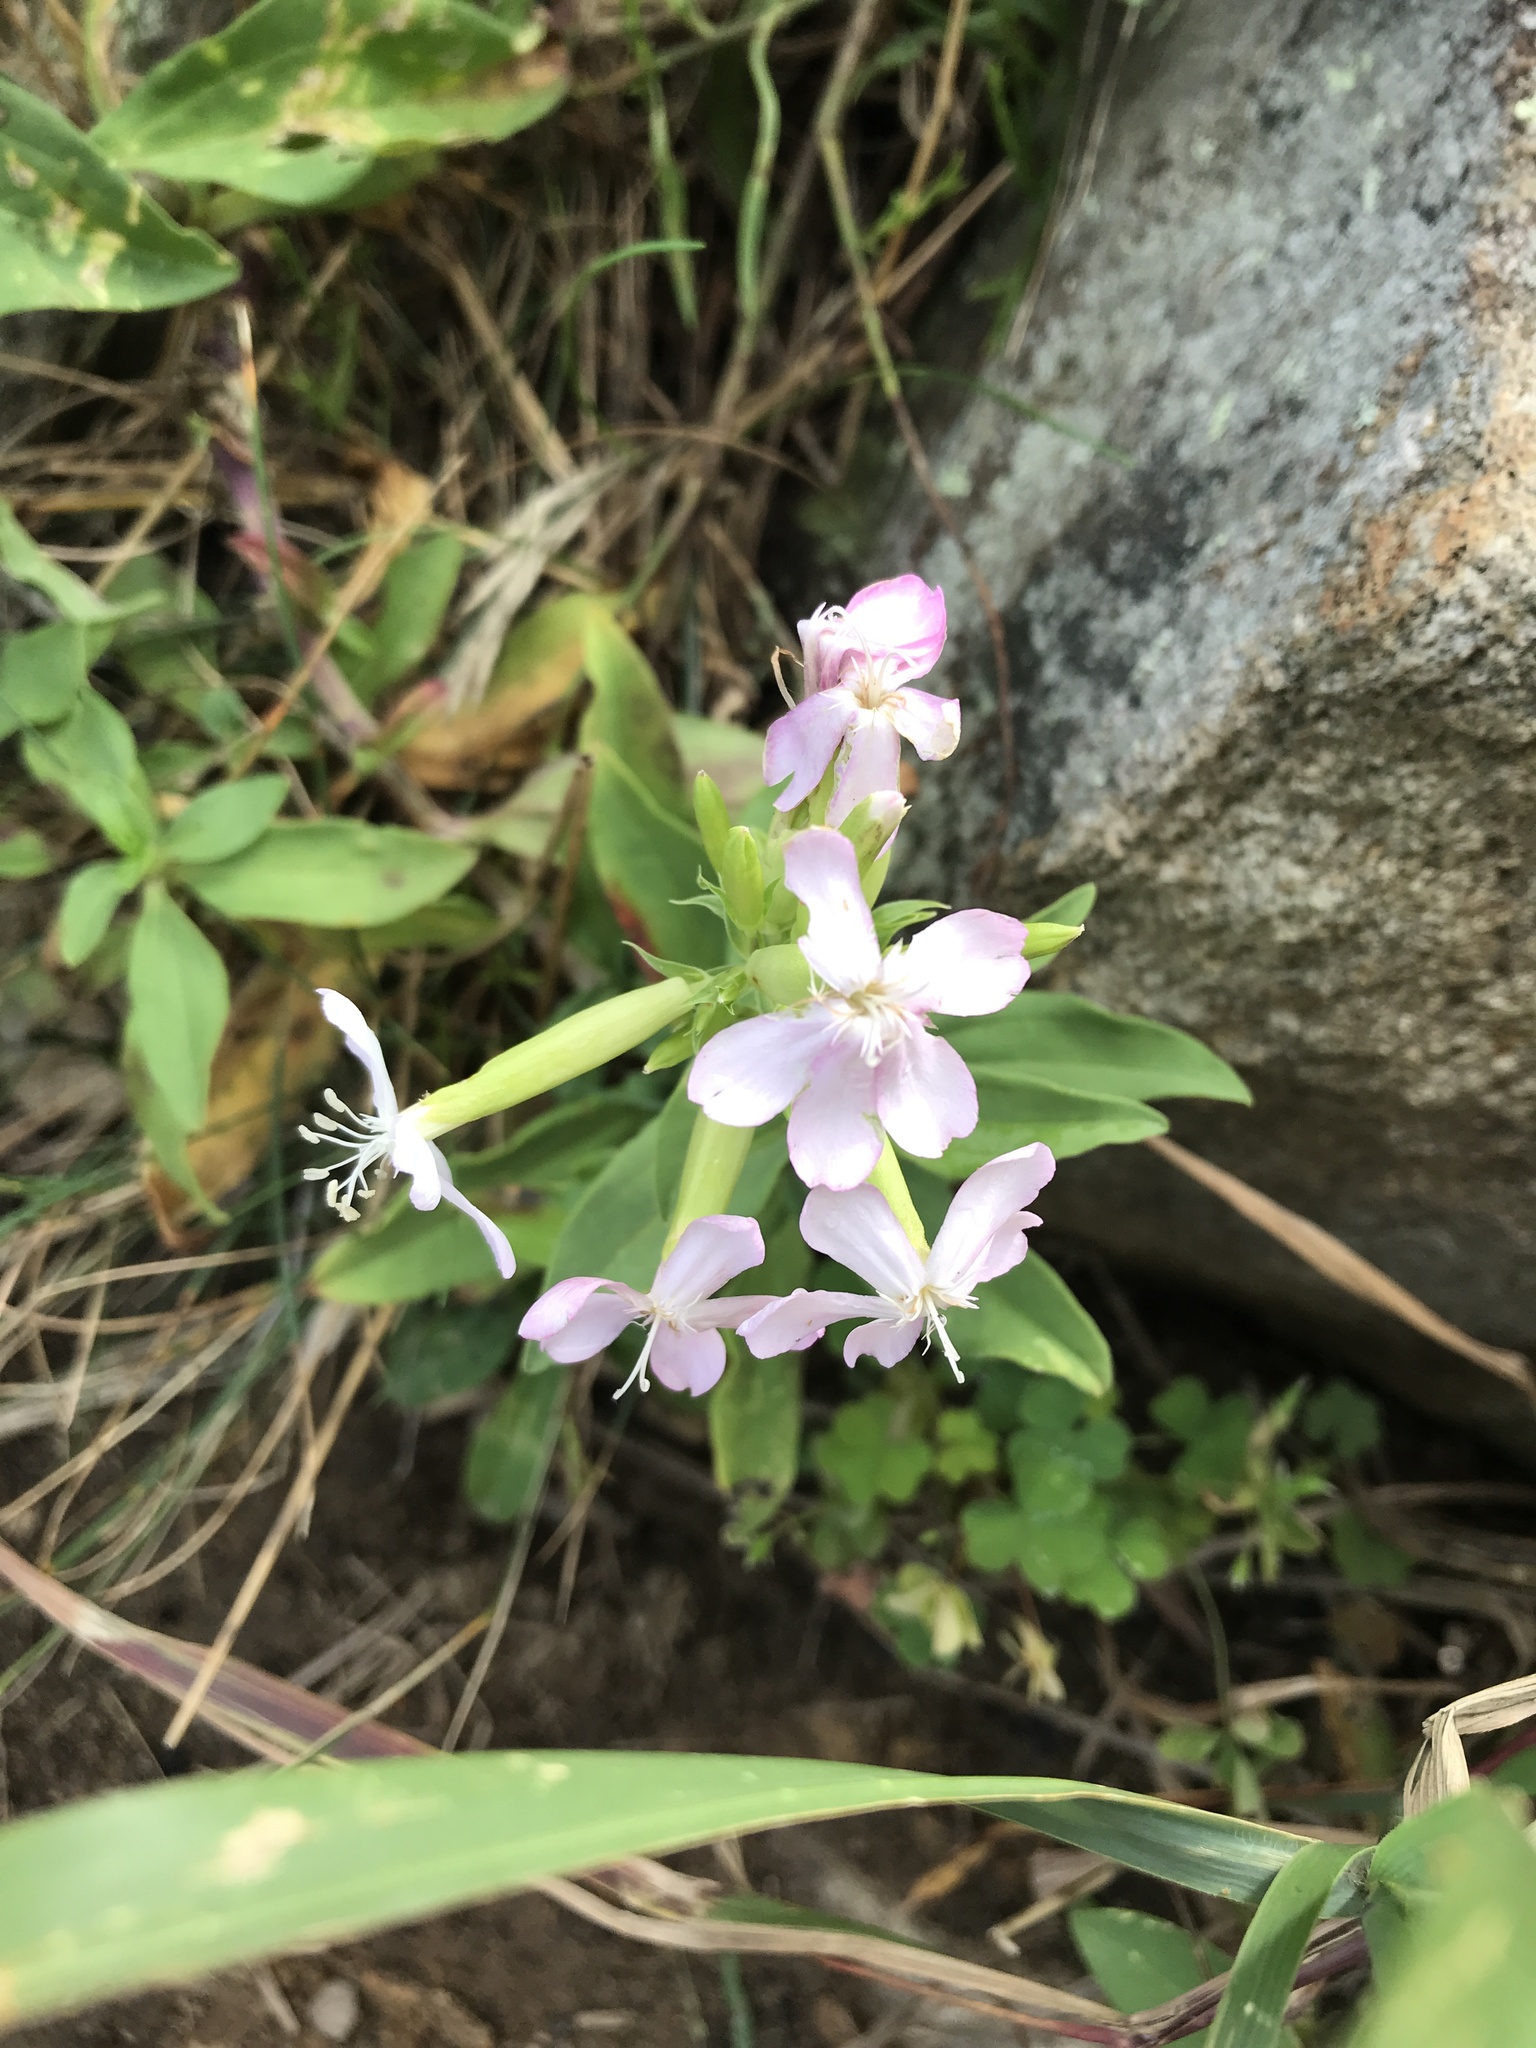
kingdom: Plantae
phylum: Tracheophyta
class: Magnoliopsida
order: Caryophyllales
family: Caryophyllaceae
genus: Saponaria
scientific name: Saponaria officinalis
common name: Soapwort
